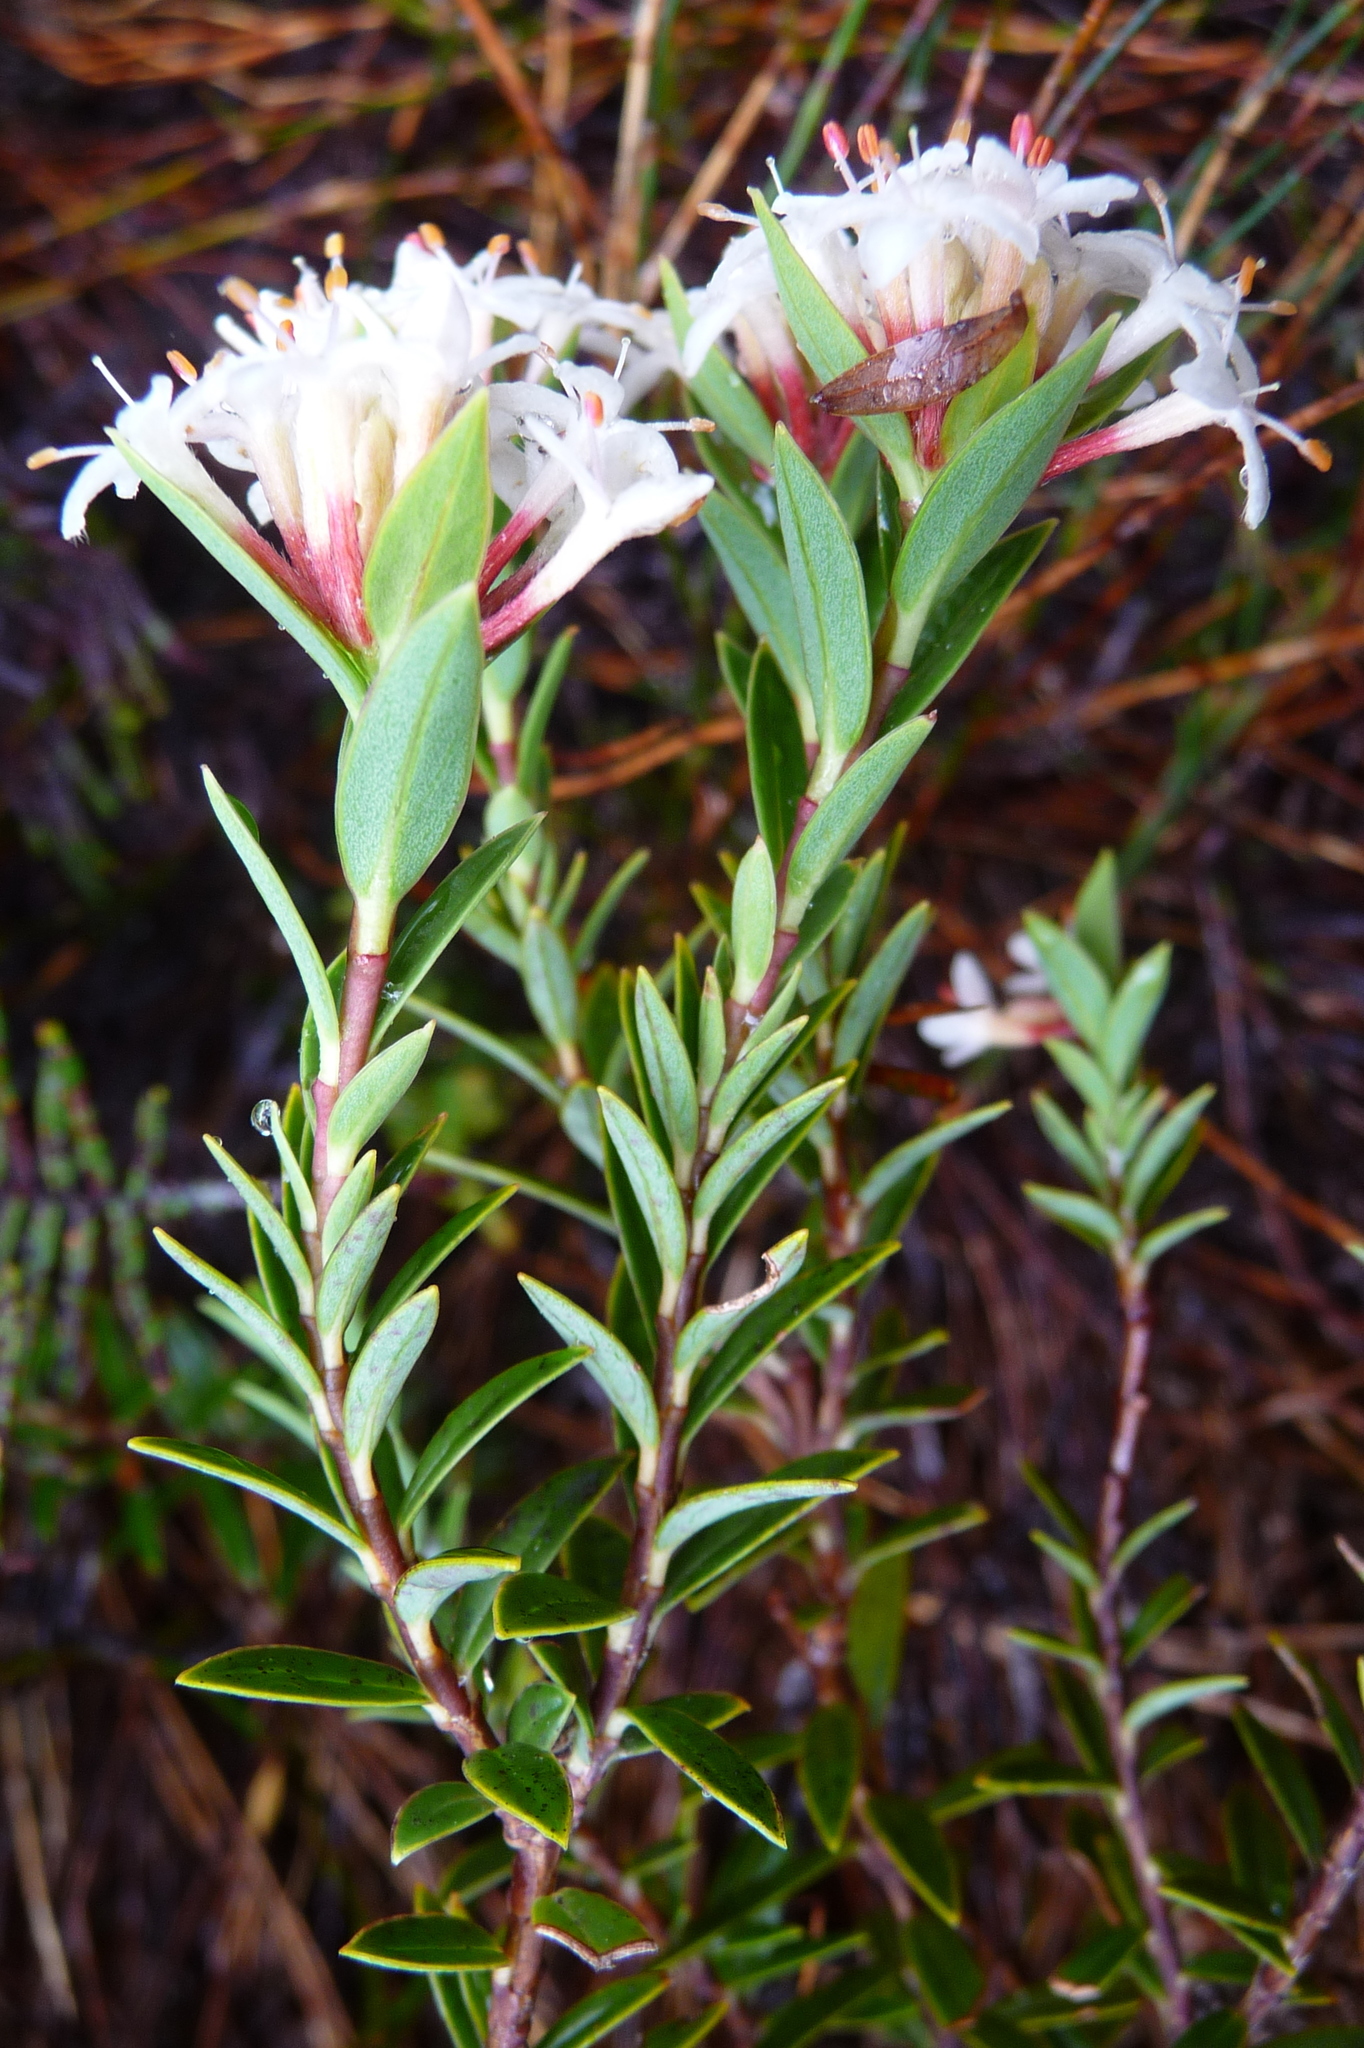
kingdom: Plantae
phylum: Tracheophyta
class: Magnoliopsida
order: Malvales
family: Thymelaeaceae
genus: Pimelea
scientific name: Pimelea gnidia
